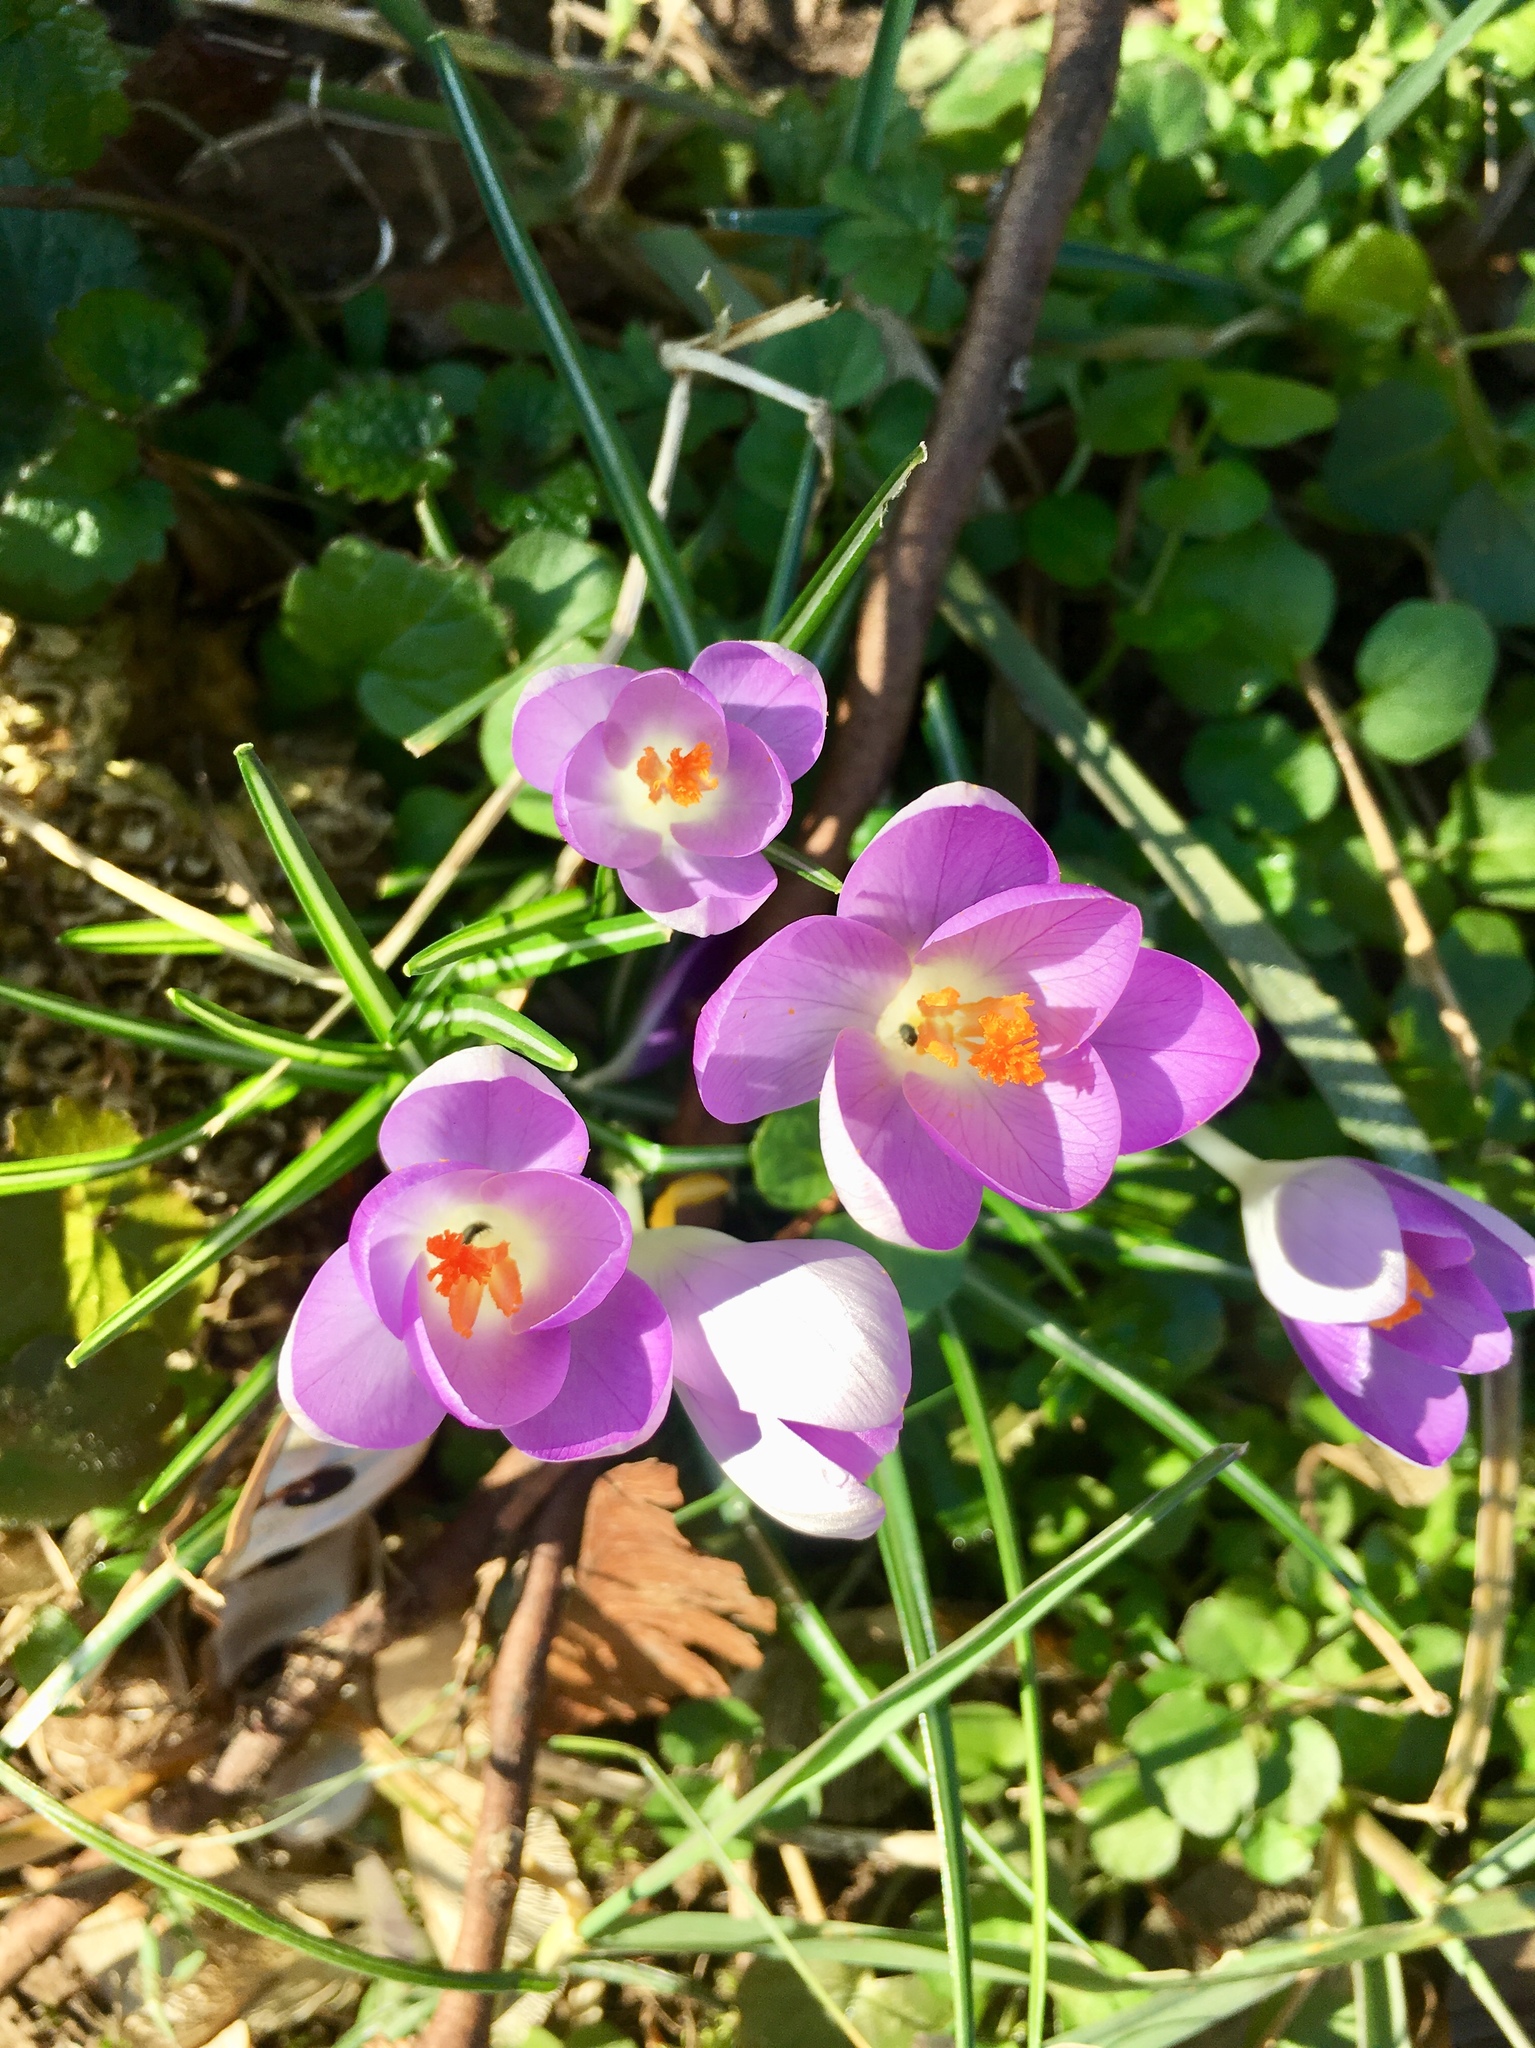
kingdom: Plantae
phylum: Tracheophyta
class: Liliopsida
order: Asparagales
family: Iridaceae
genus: Crocus
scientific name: Crocus tommasinianus
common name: Early crocus
